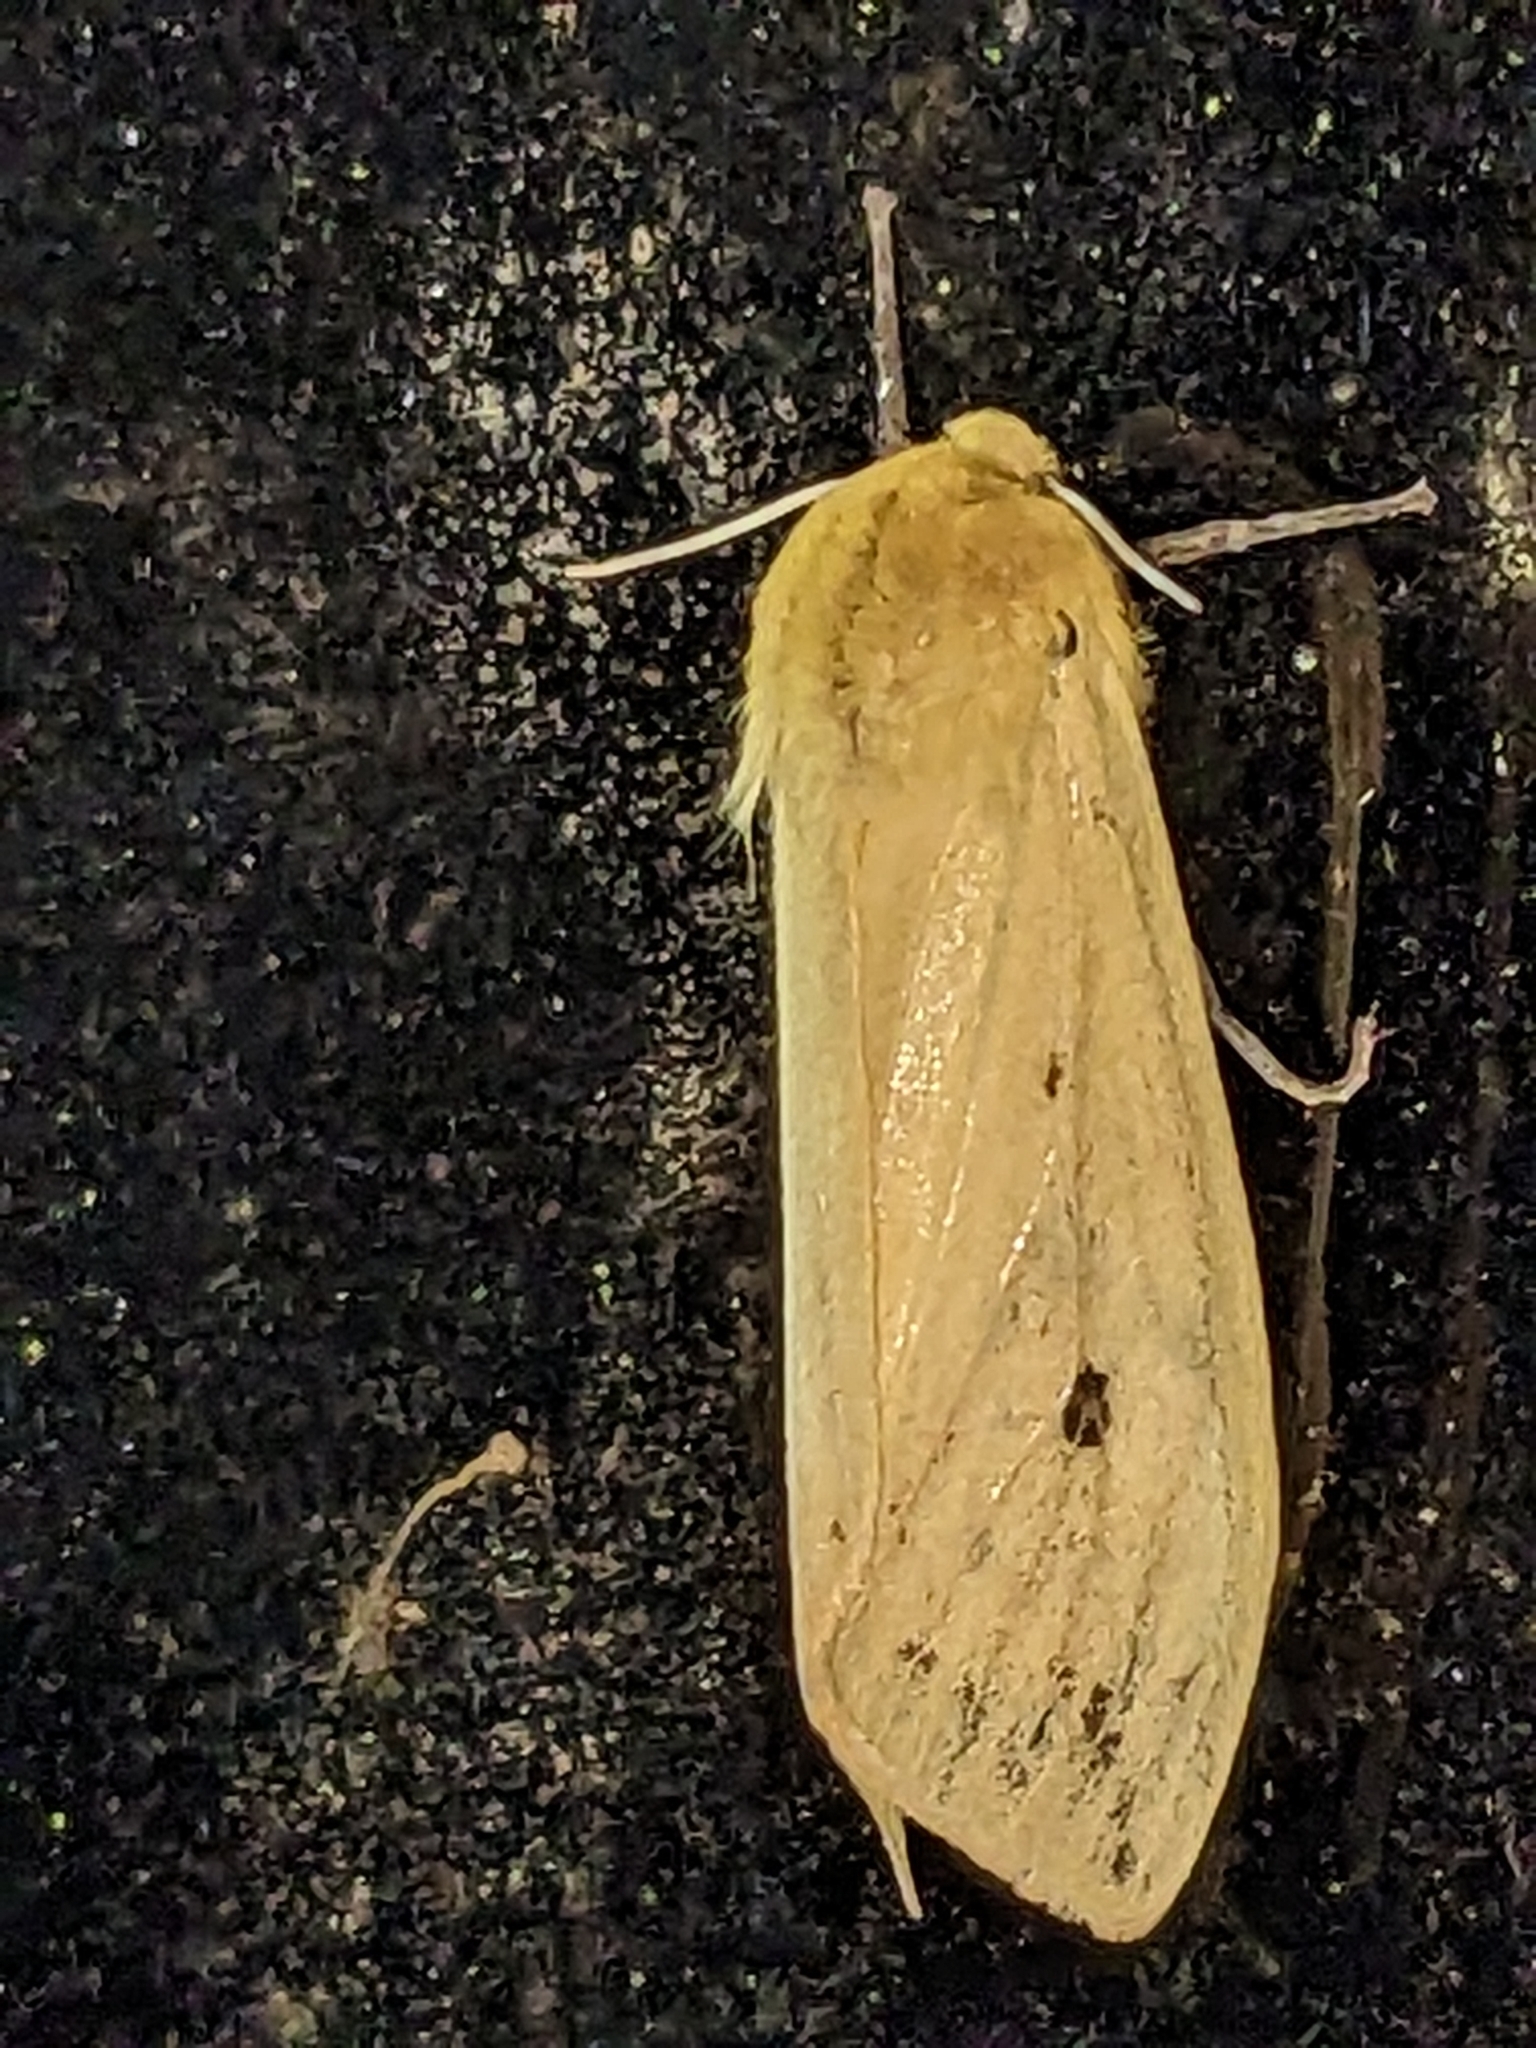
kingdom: Animalia
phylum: Arthropoda
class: Insecta
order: Lepidoptera
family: Erebidae
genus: Pyrrharctia
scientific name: Pyrrharctia isabella
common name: Isabella tiger moth
